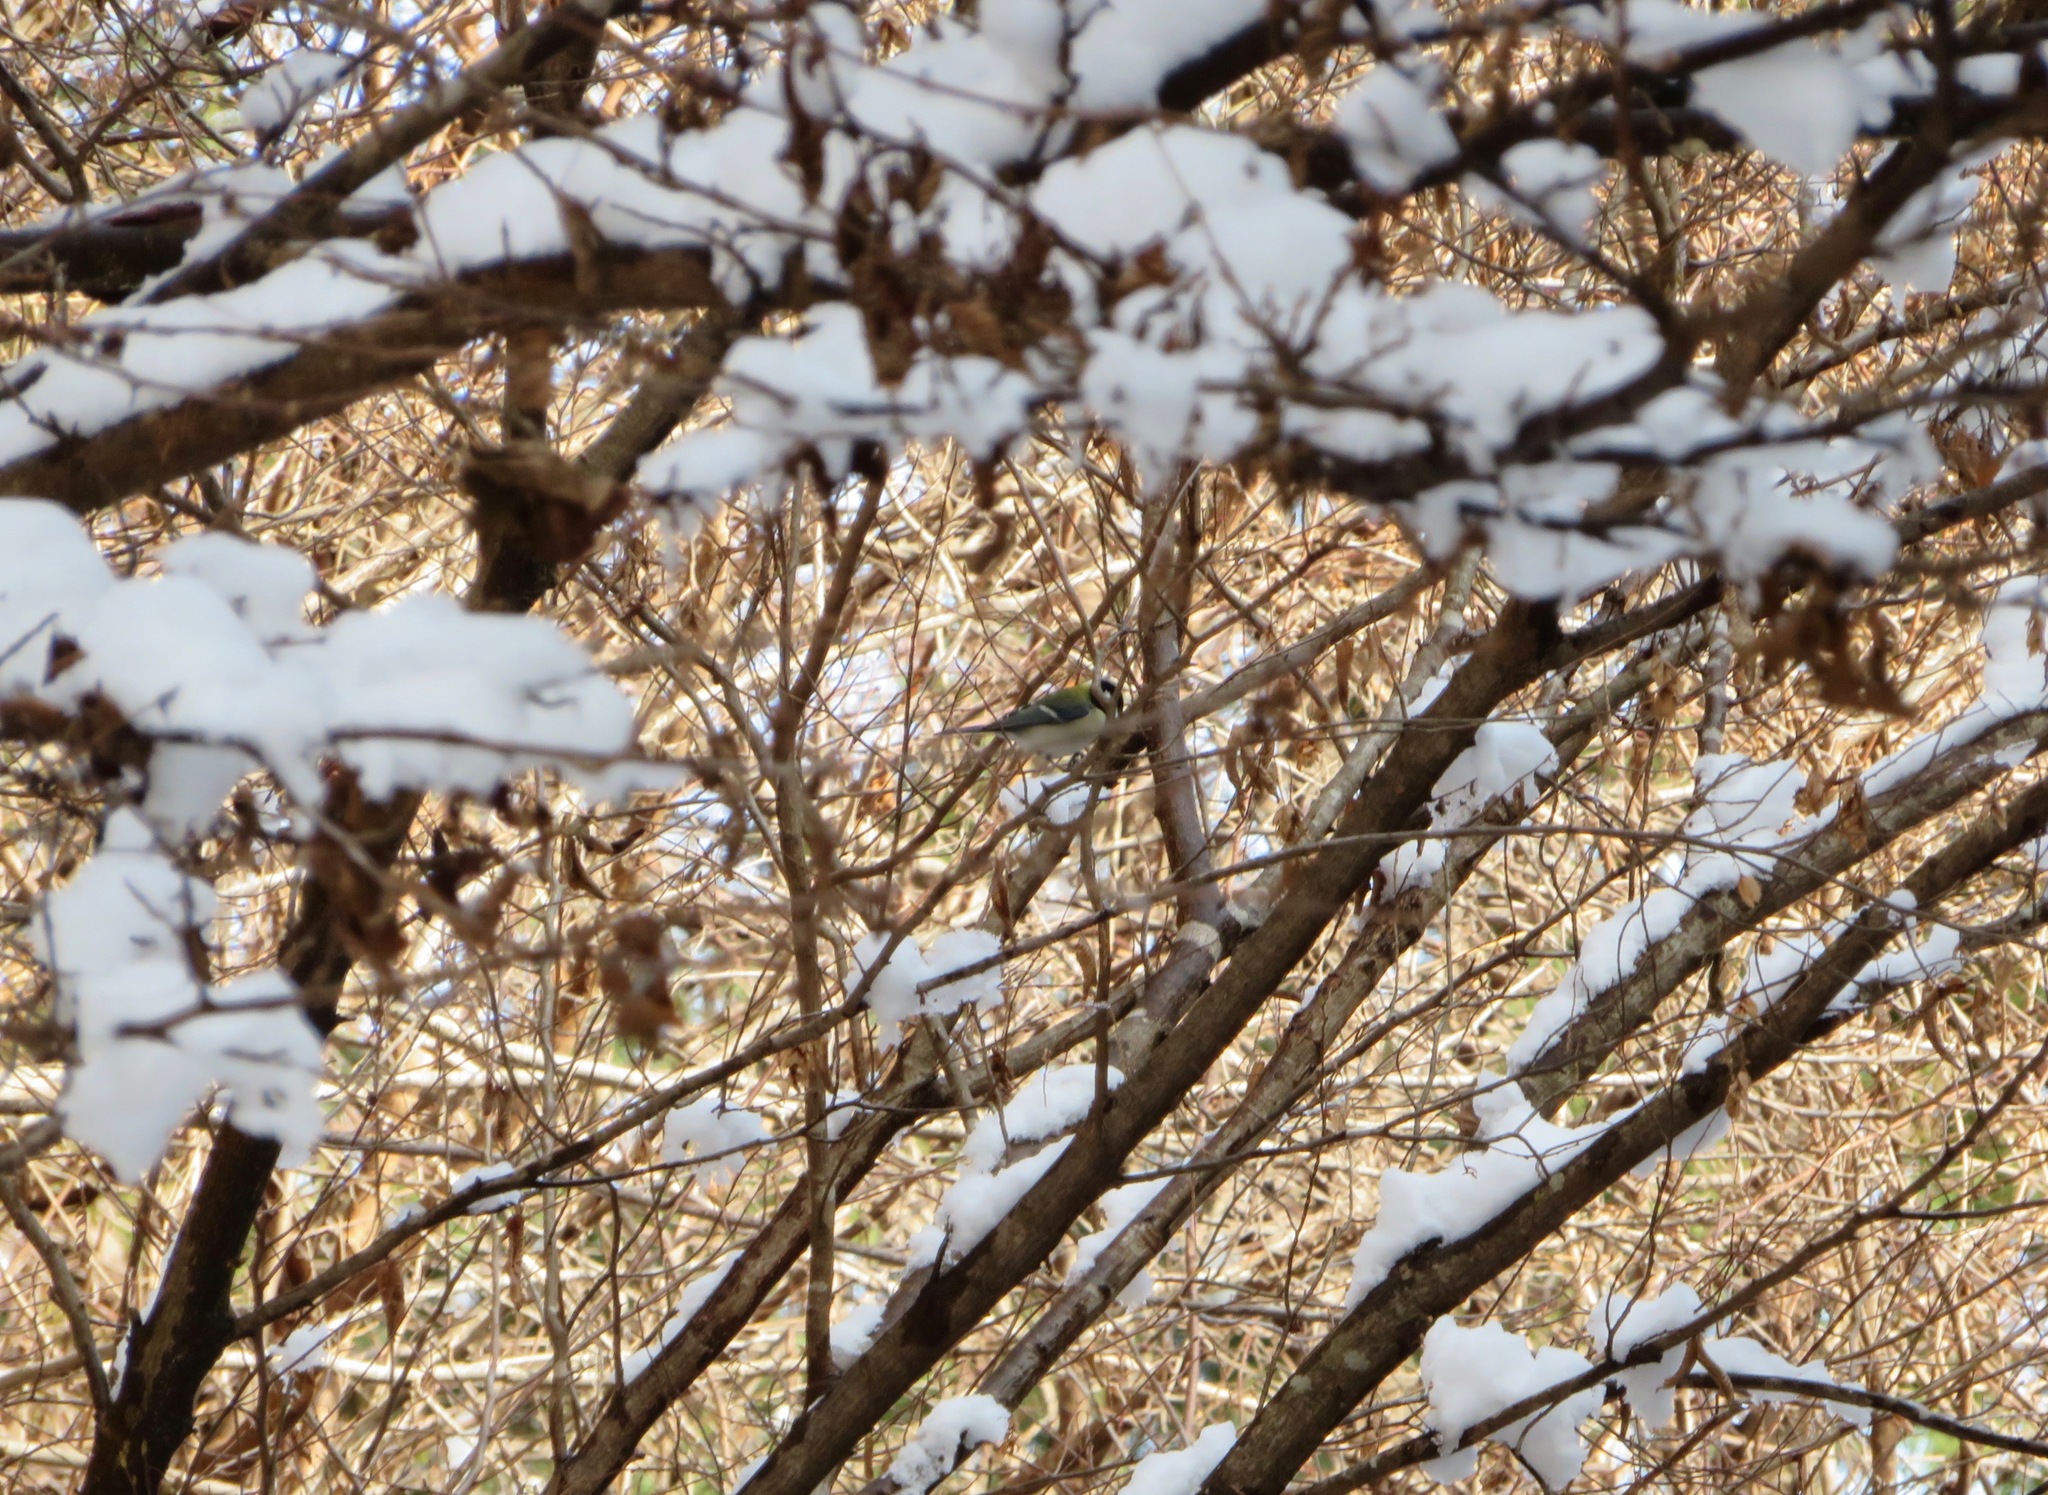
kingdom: Animalia
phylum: Chordata
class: Aves
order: Passeriformes
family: Paridae
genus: Parus
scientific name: Parus minor
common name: Japanese tit
